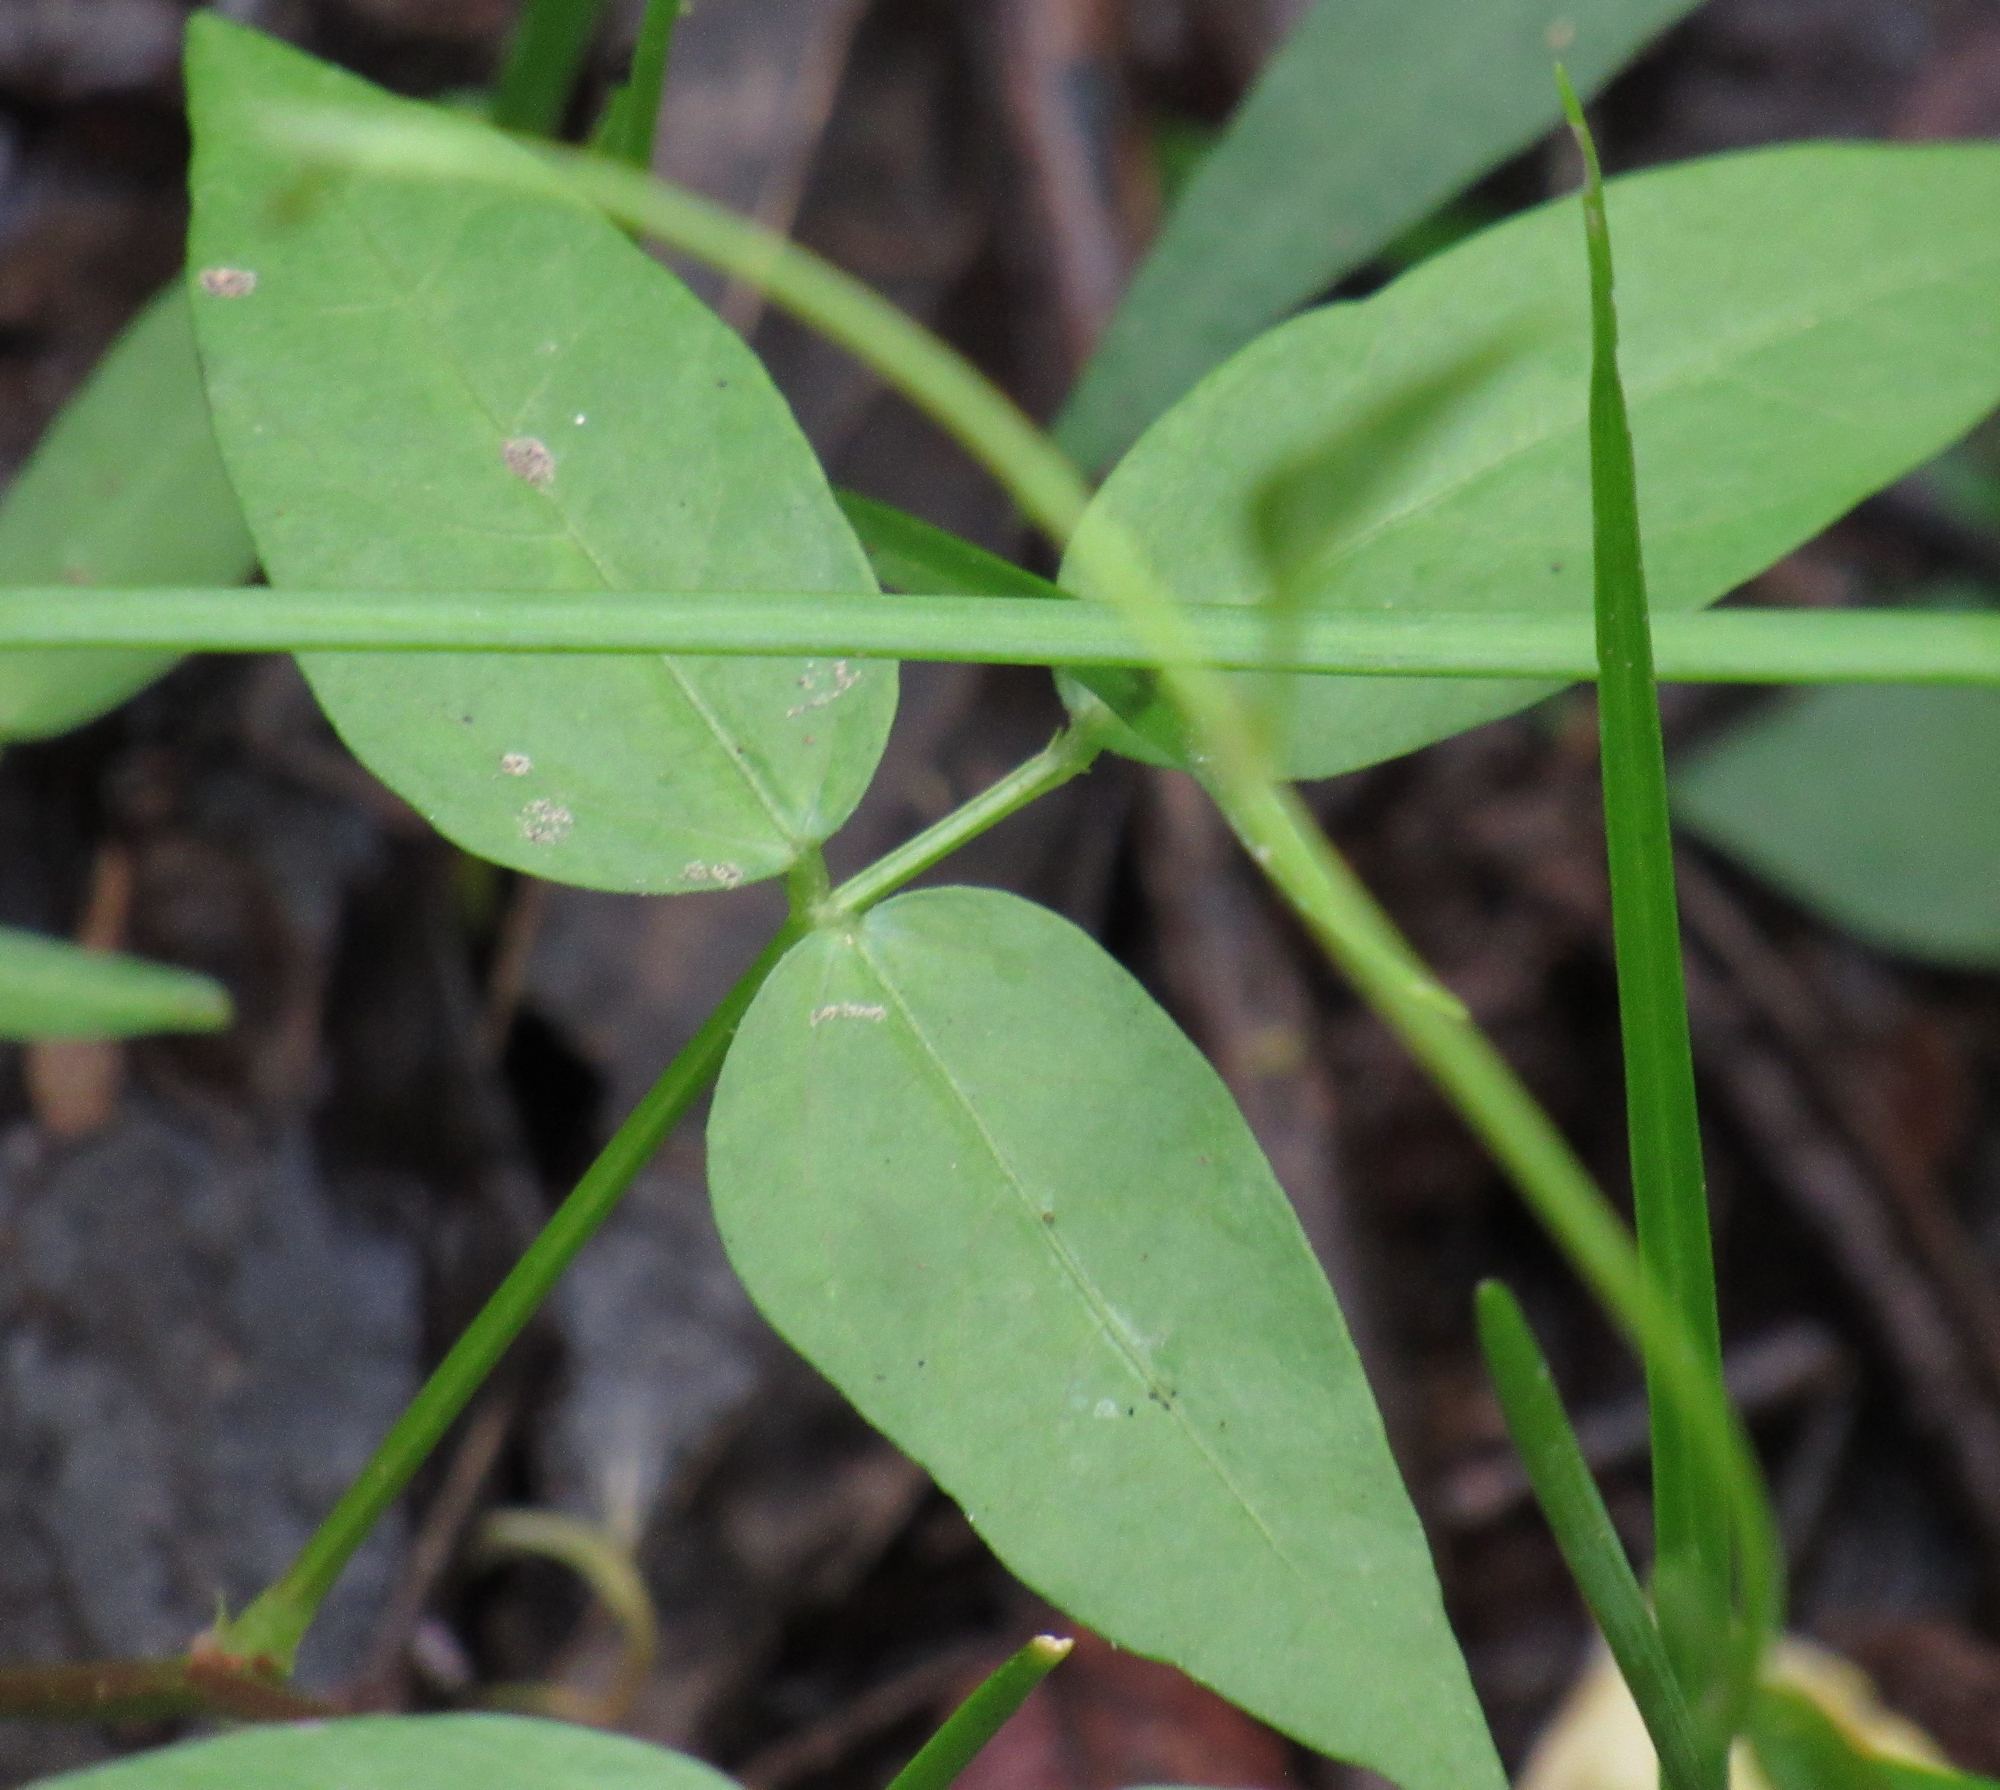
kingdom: Plantae
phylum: Tracheophyta
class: Magnoliopsida
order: Fabales
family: Fabaceae
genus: Vigna
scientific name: Vigna luteola
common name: Hairypod cowpea
